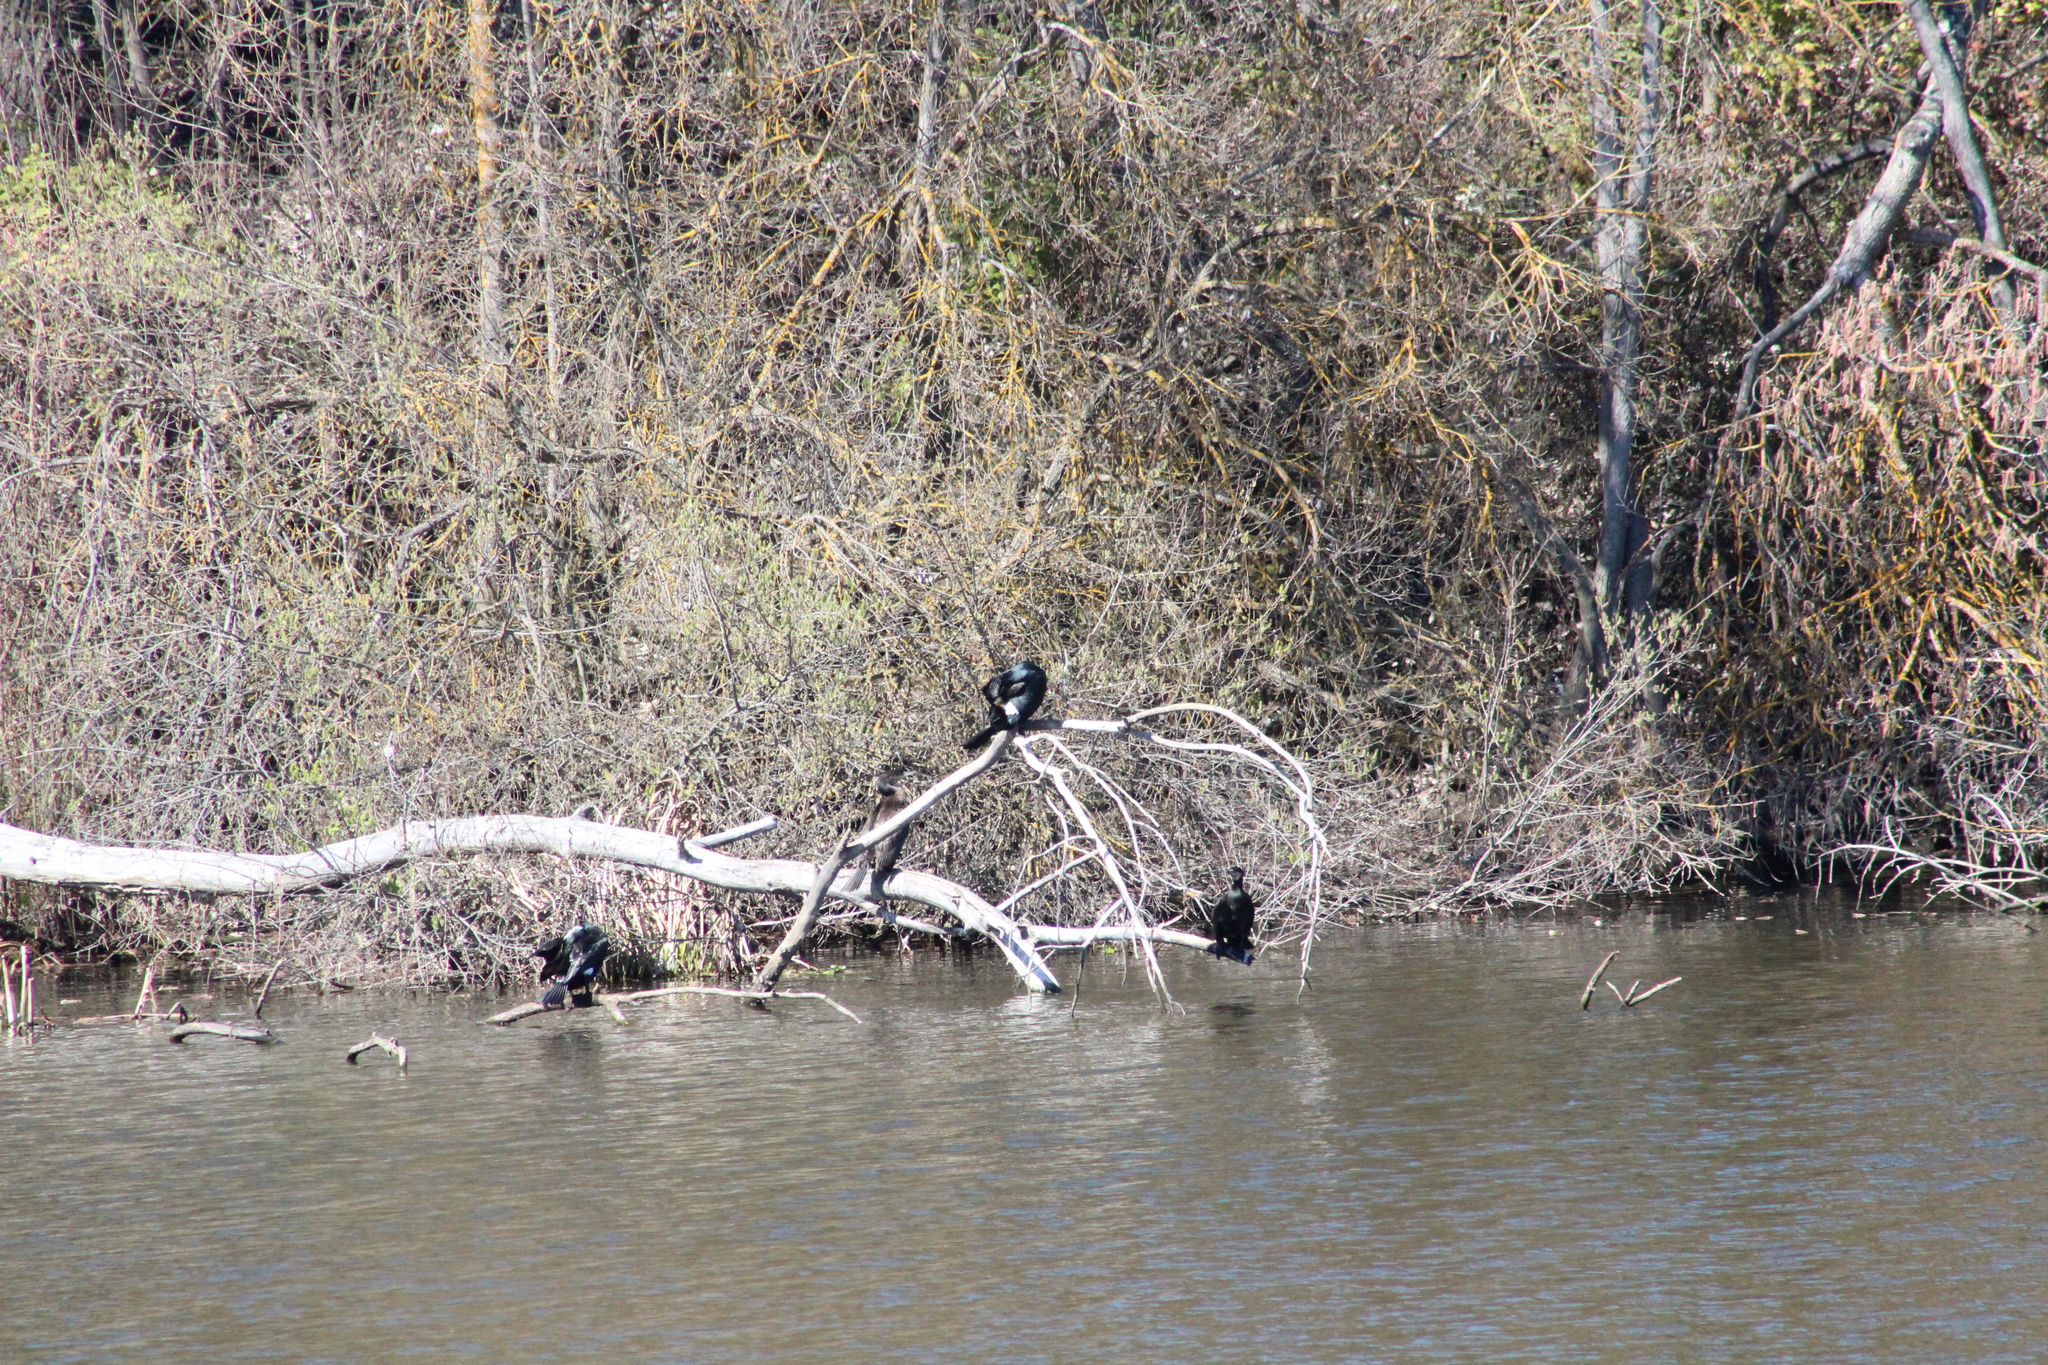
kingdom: Animalia
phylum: Chordata
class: Aves
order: Suliformes
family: Phalacrocoracidae
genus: Phalacrocorax
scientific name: Phalacrocorax carbo
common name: Great cormorant
